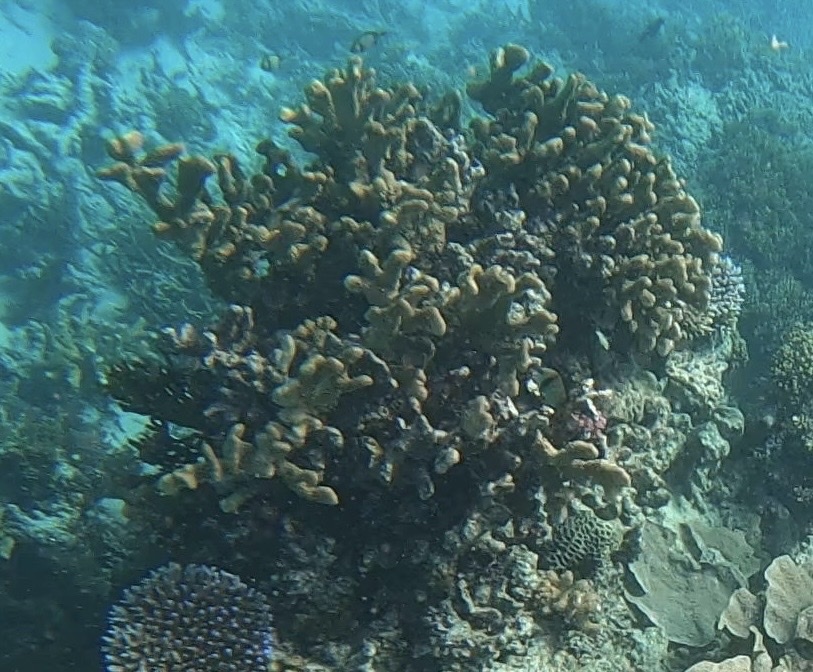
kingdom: Animalia
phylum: Cnidaria
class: Anthozoa
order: Scleractinia
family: Acroporidae
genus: Isopora
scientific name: Isopora palifera
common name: Catch bowl coral
